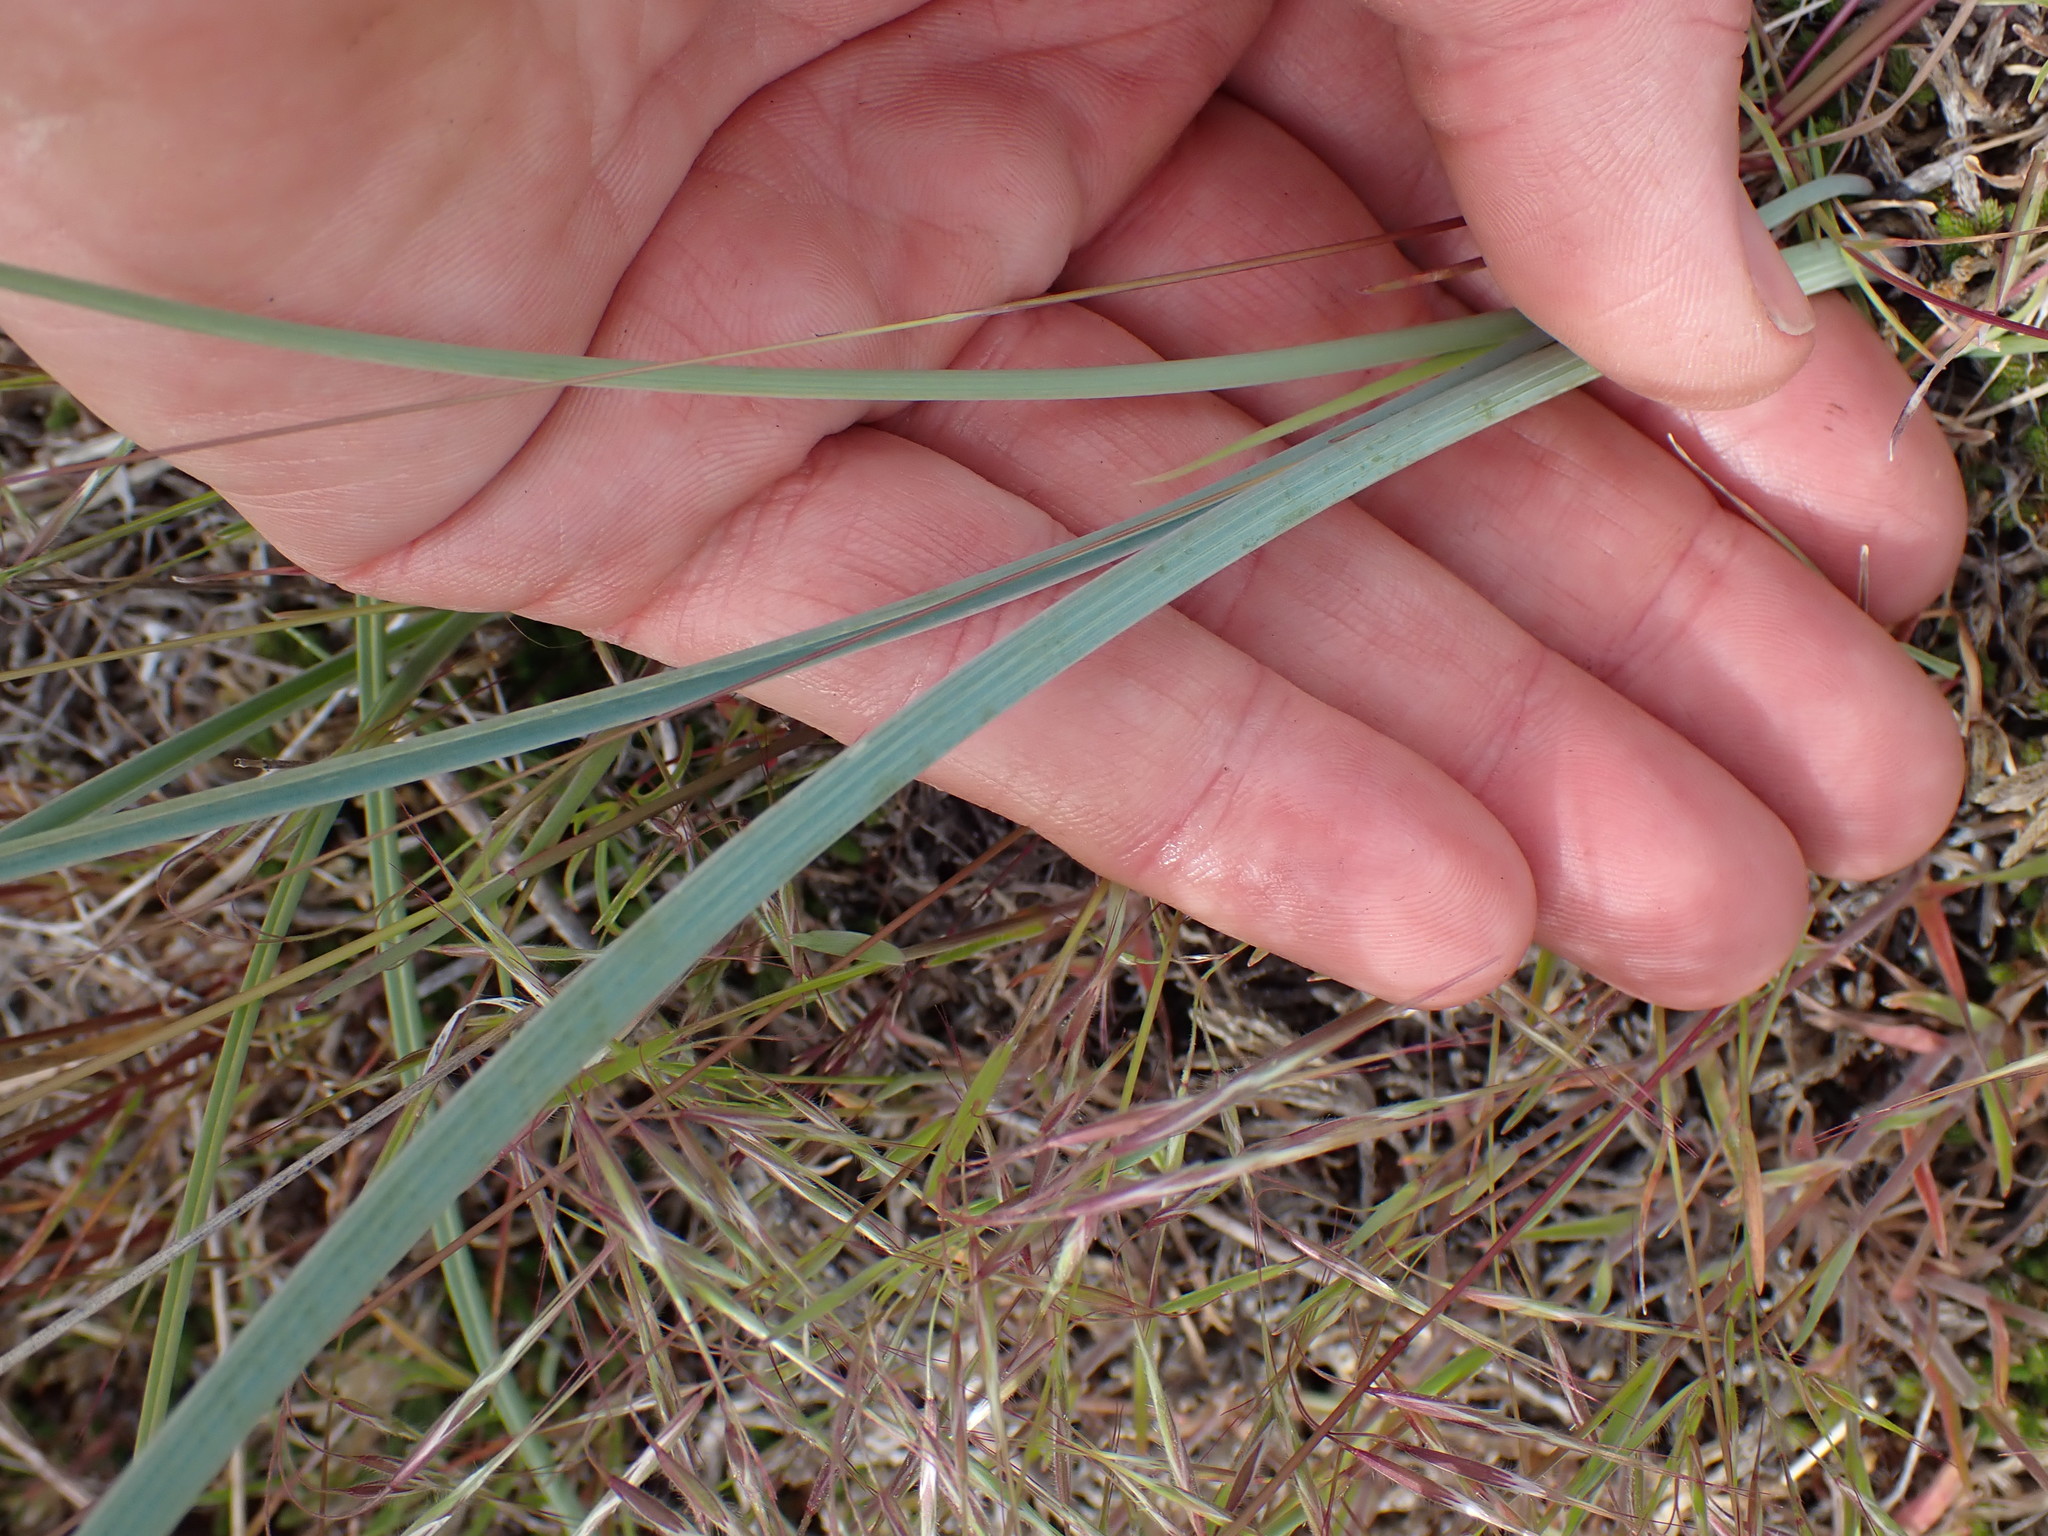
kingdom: Plantae
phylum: Tracheophyta
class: Liliopsida
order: Liliales
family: Liliaceae
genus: Calochortus
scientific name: Calochortus macrocarpus
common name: Green-band mariposa lily
